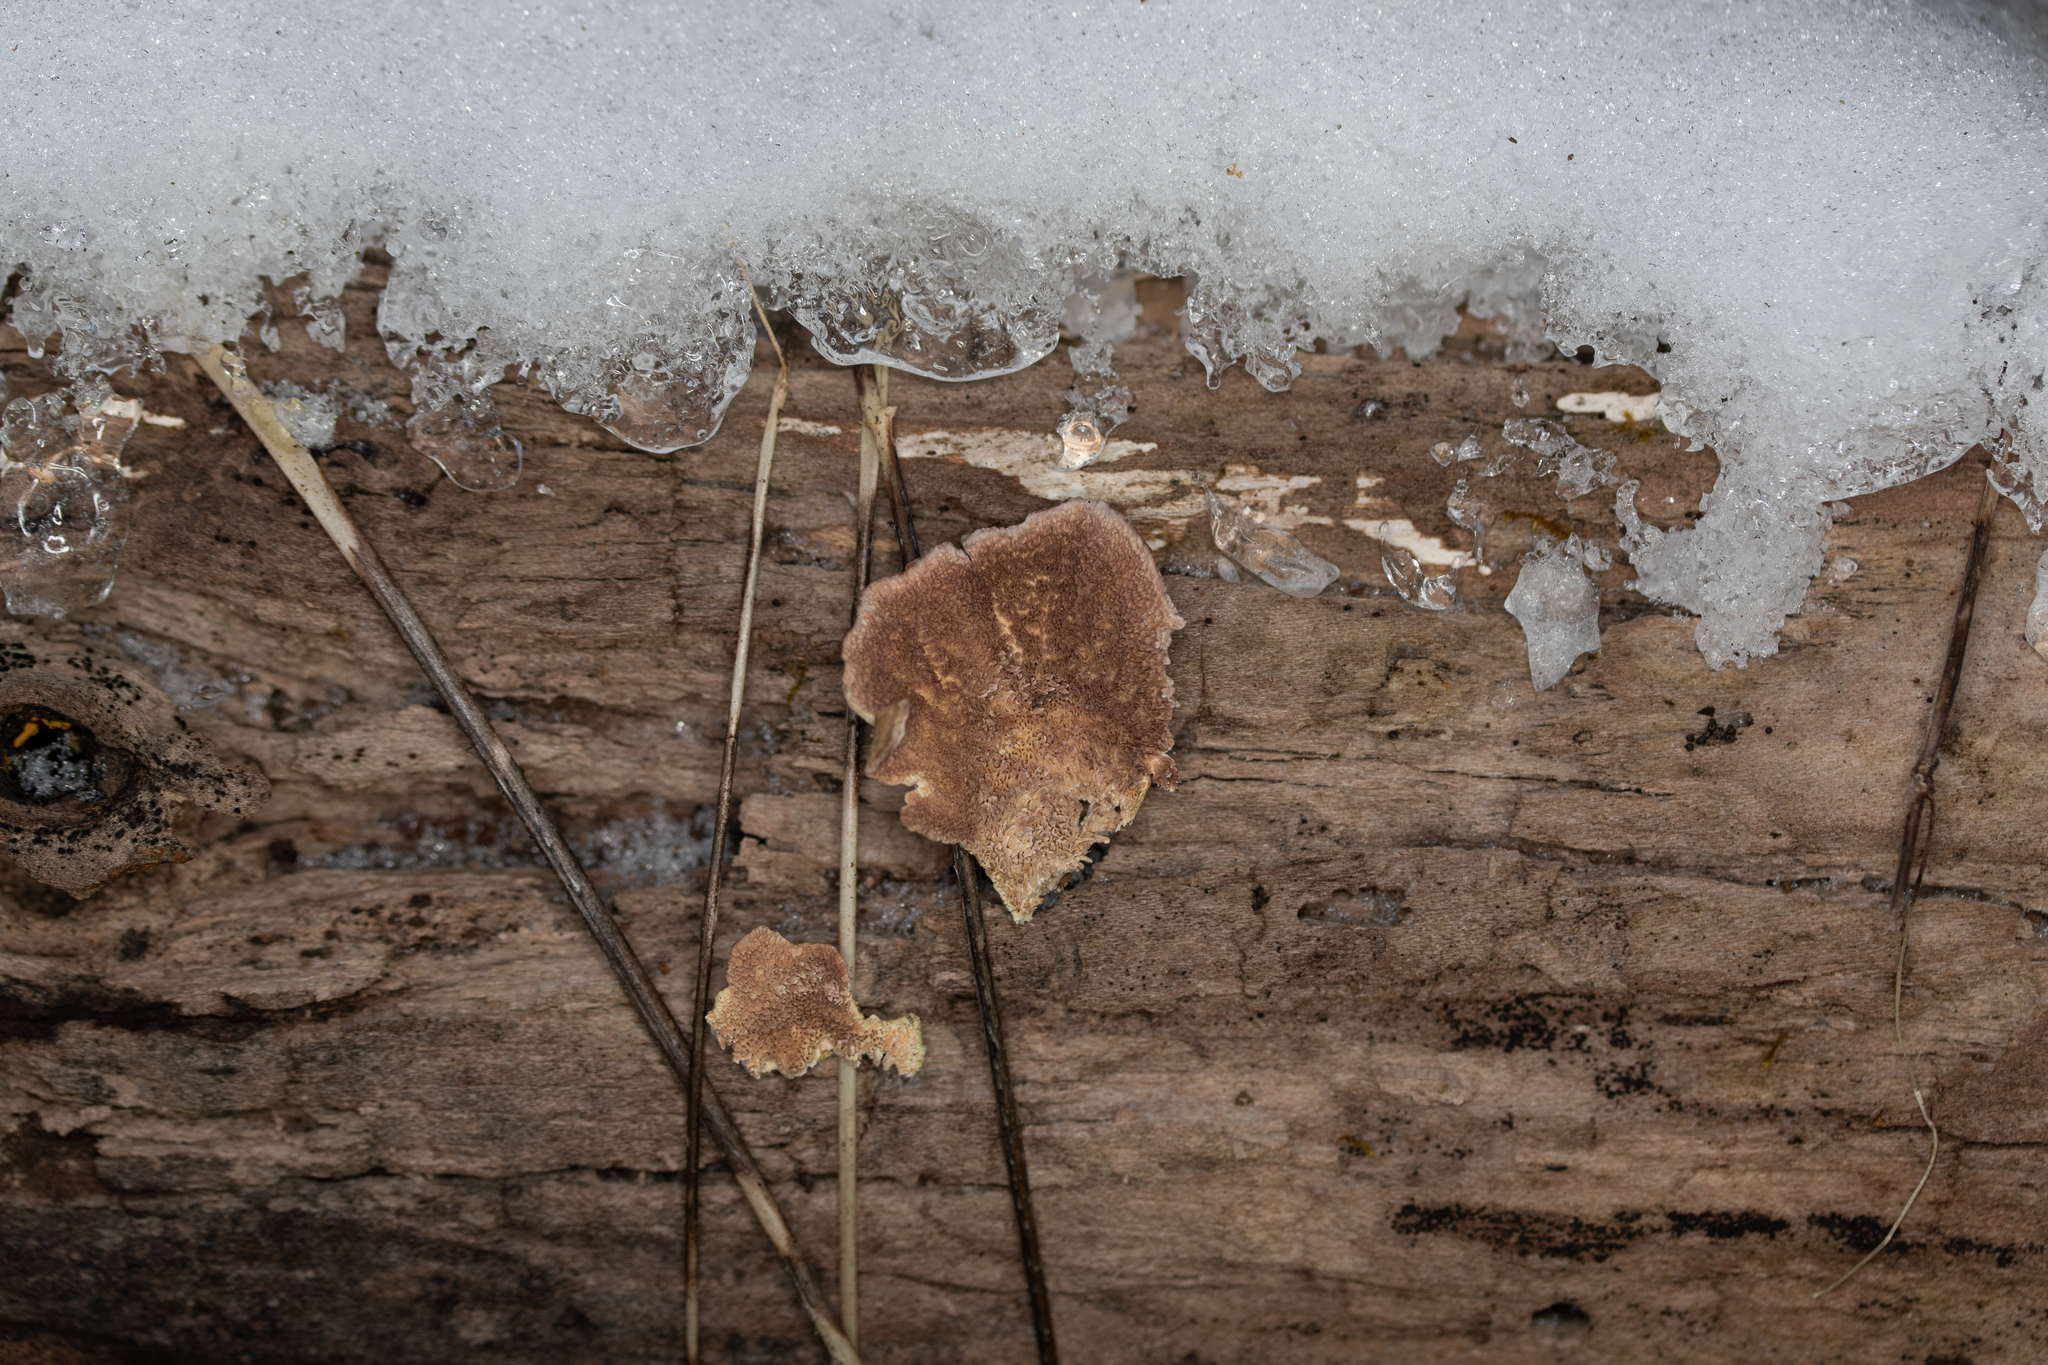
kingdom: Fungi
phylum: Basidiomycota
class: Agaricomycetes
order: Hymenochaetales
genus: Trichaptum
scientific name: Trichaptum biforme
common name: Violet-toothed polypore
